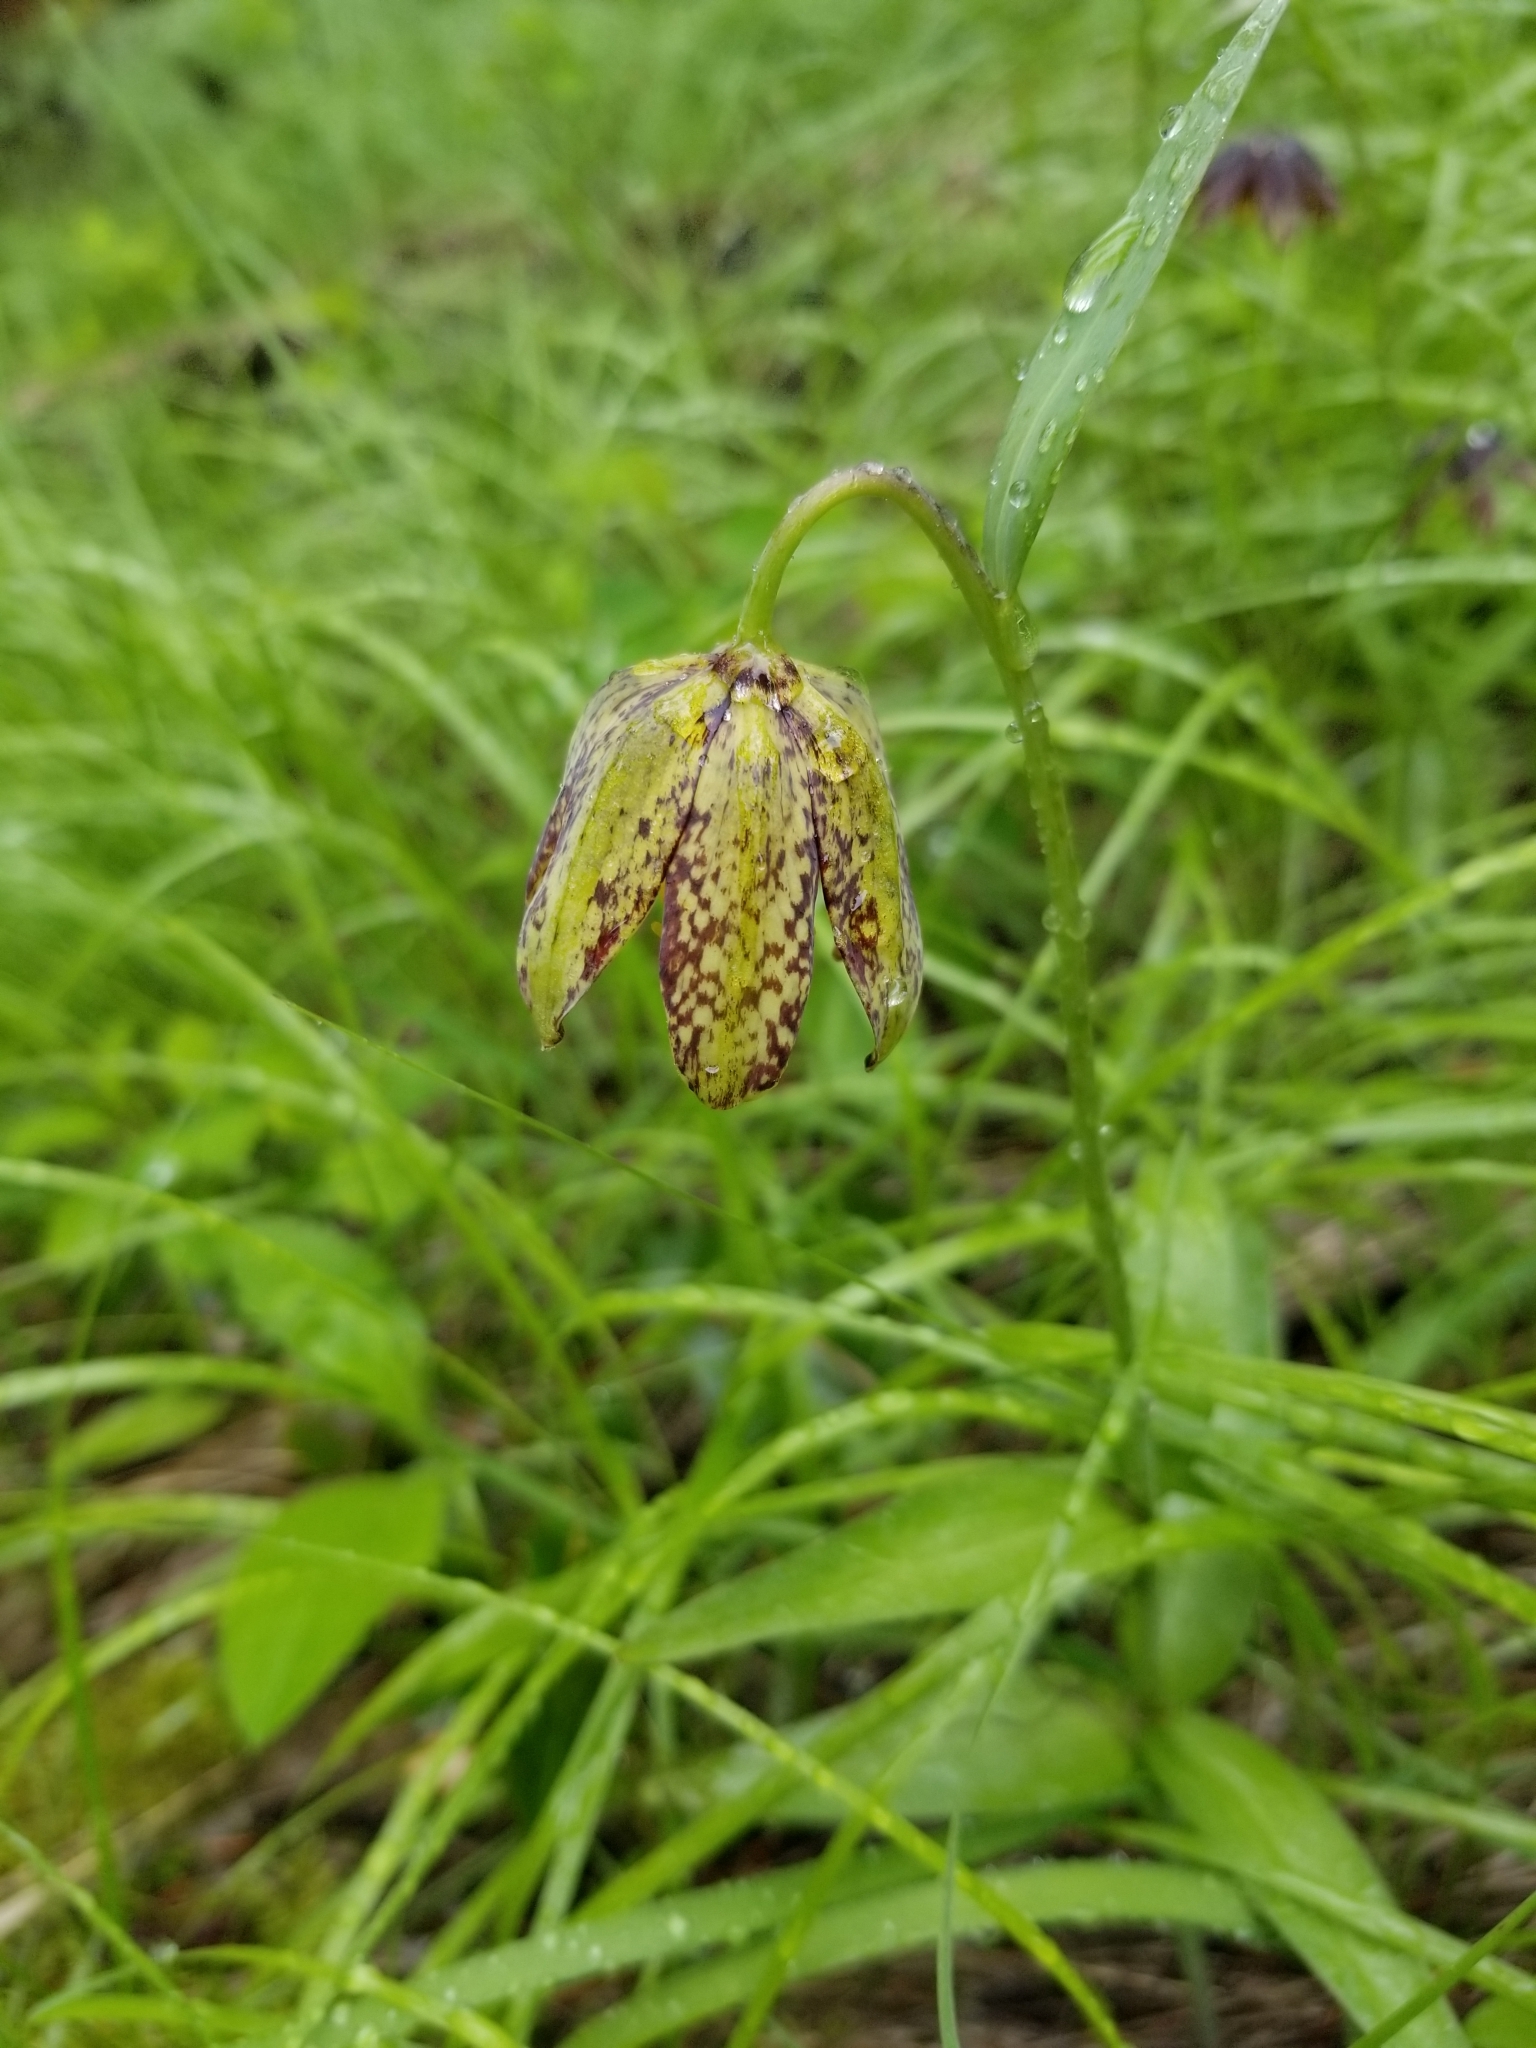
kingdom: Plantae
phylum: Tracheophyta
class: Liliopsida
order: Liliales
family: Liliaceae
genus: Fritillaria
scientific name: Fritillaria affinis
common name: Ojai fritillary
